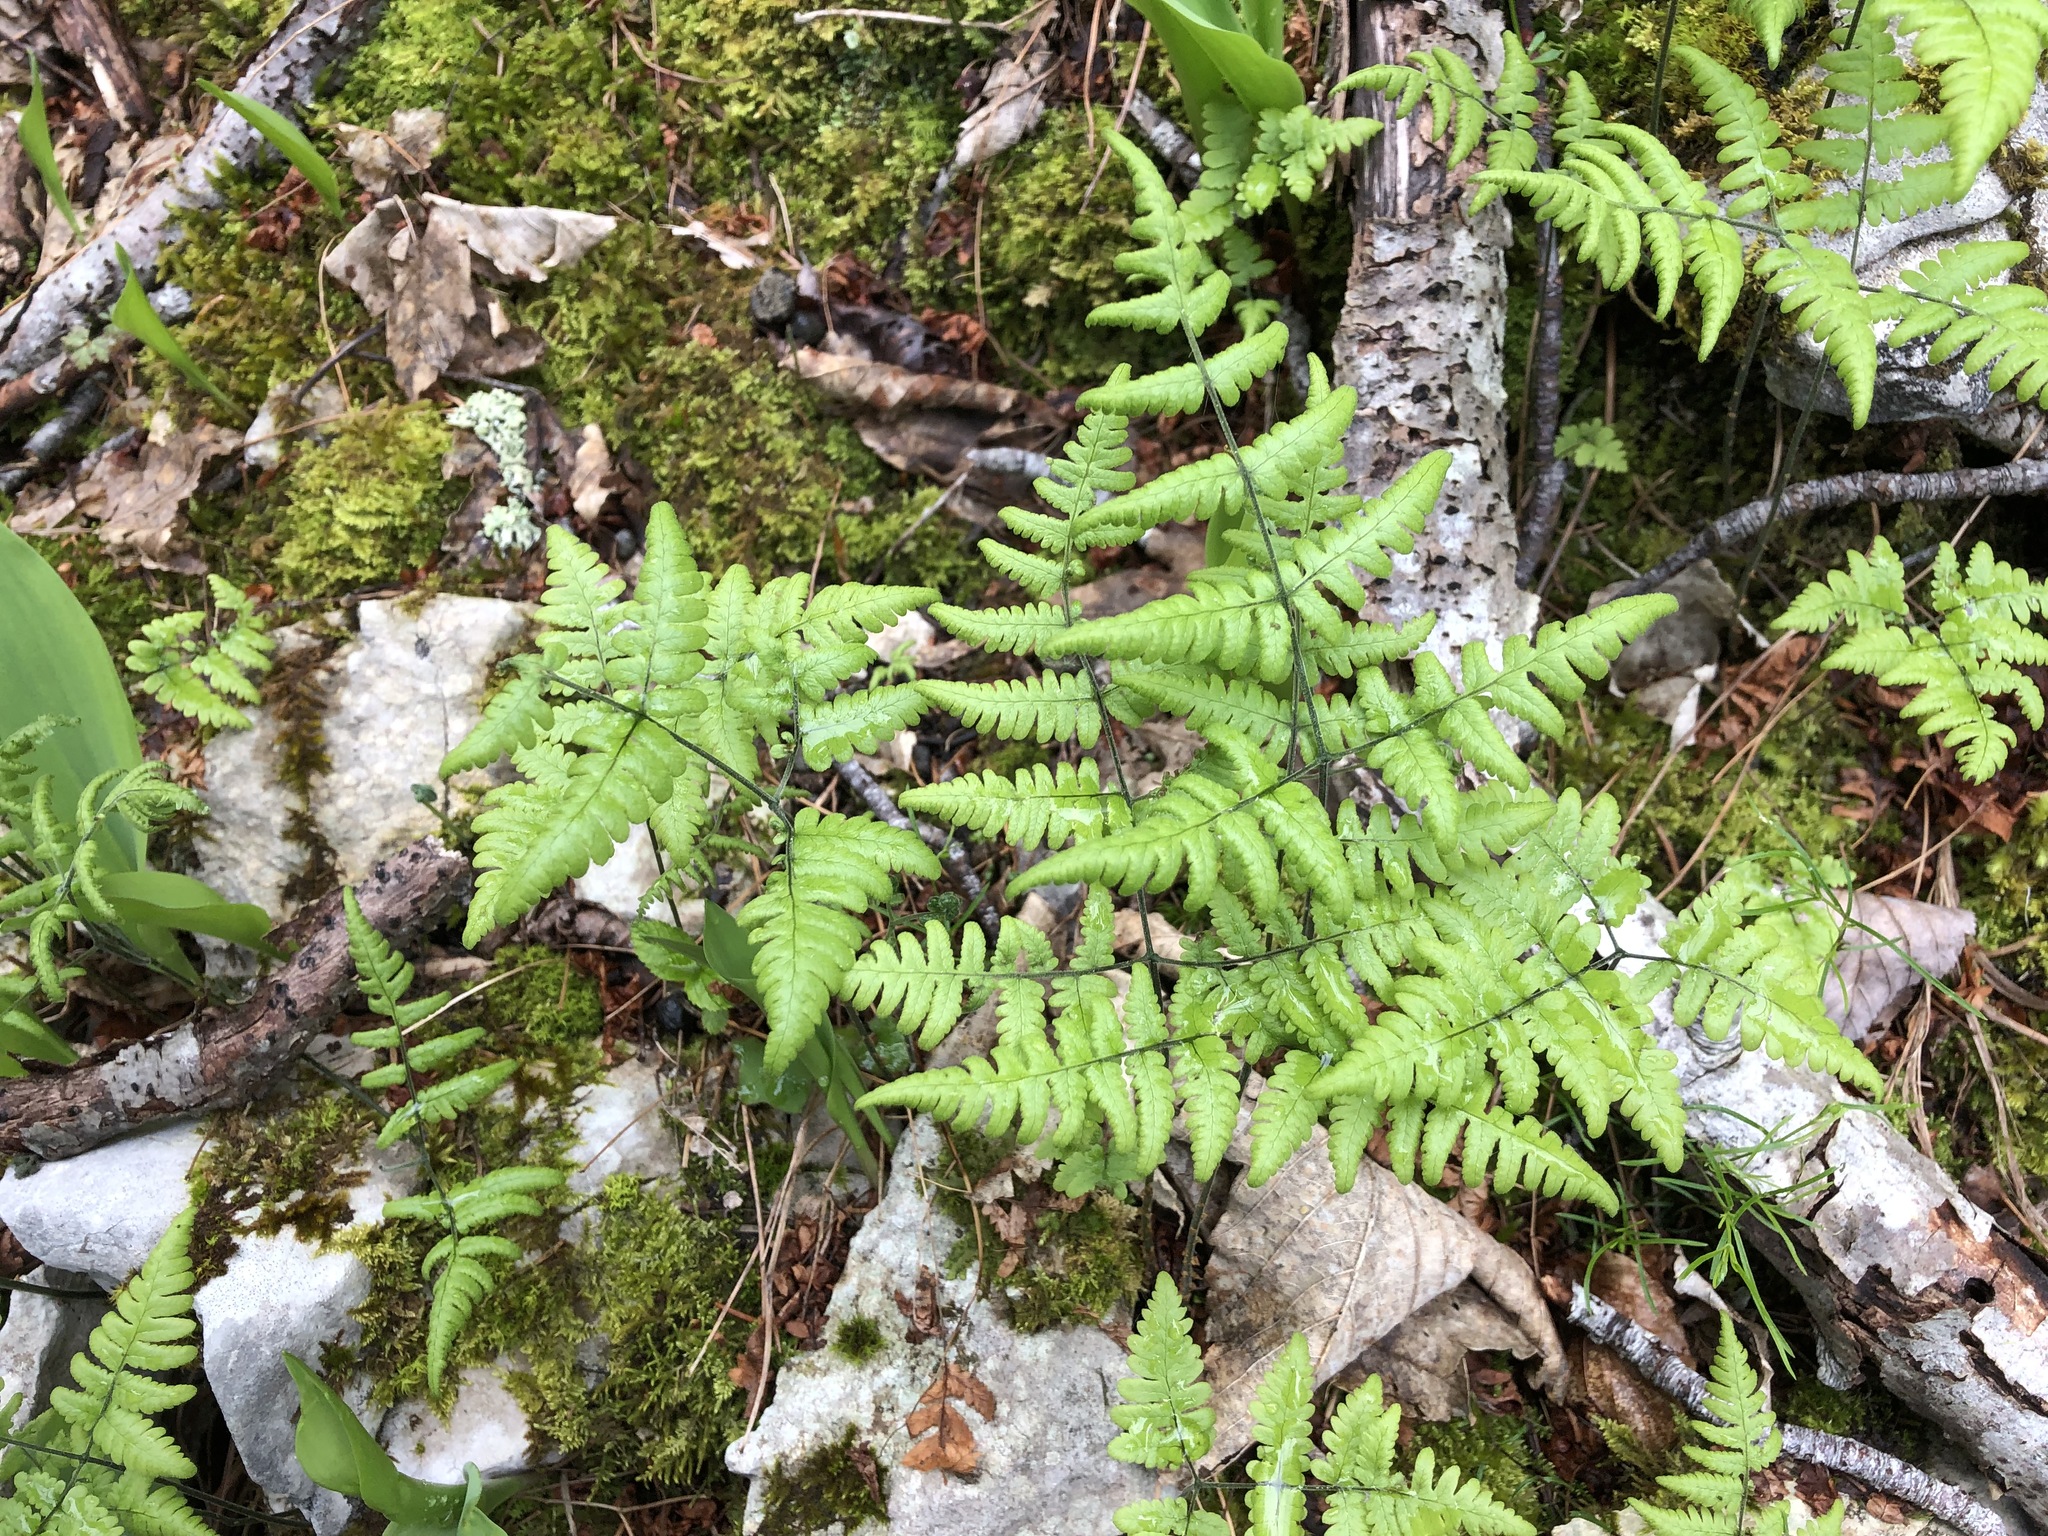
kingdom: Plantae
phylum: Tracheophyta
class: Polypodiopsida
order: Polypodiales
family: Cystopteridaceae
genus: Gymnocarpium
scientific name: Gymnocarpium robertianum
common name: Limestone fern
